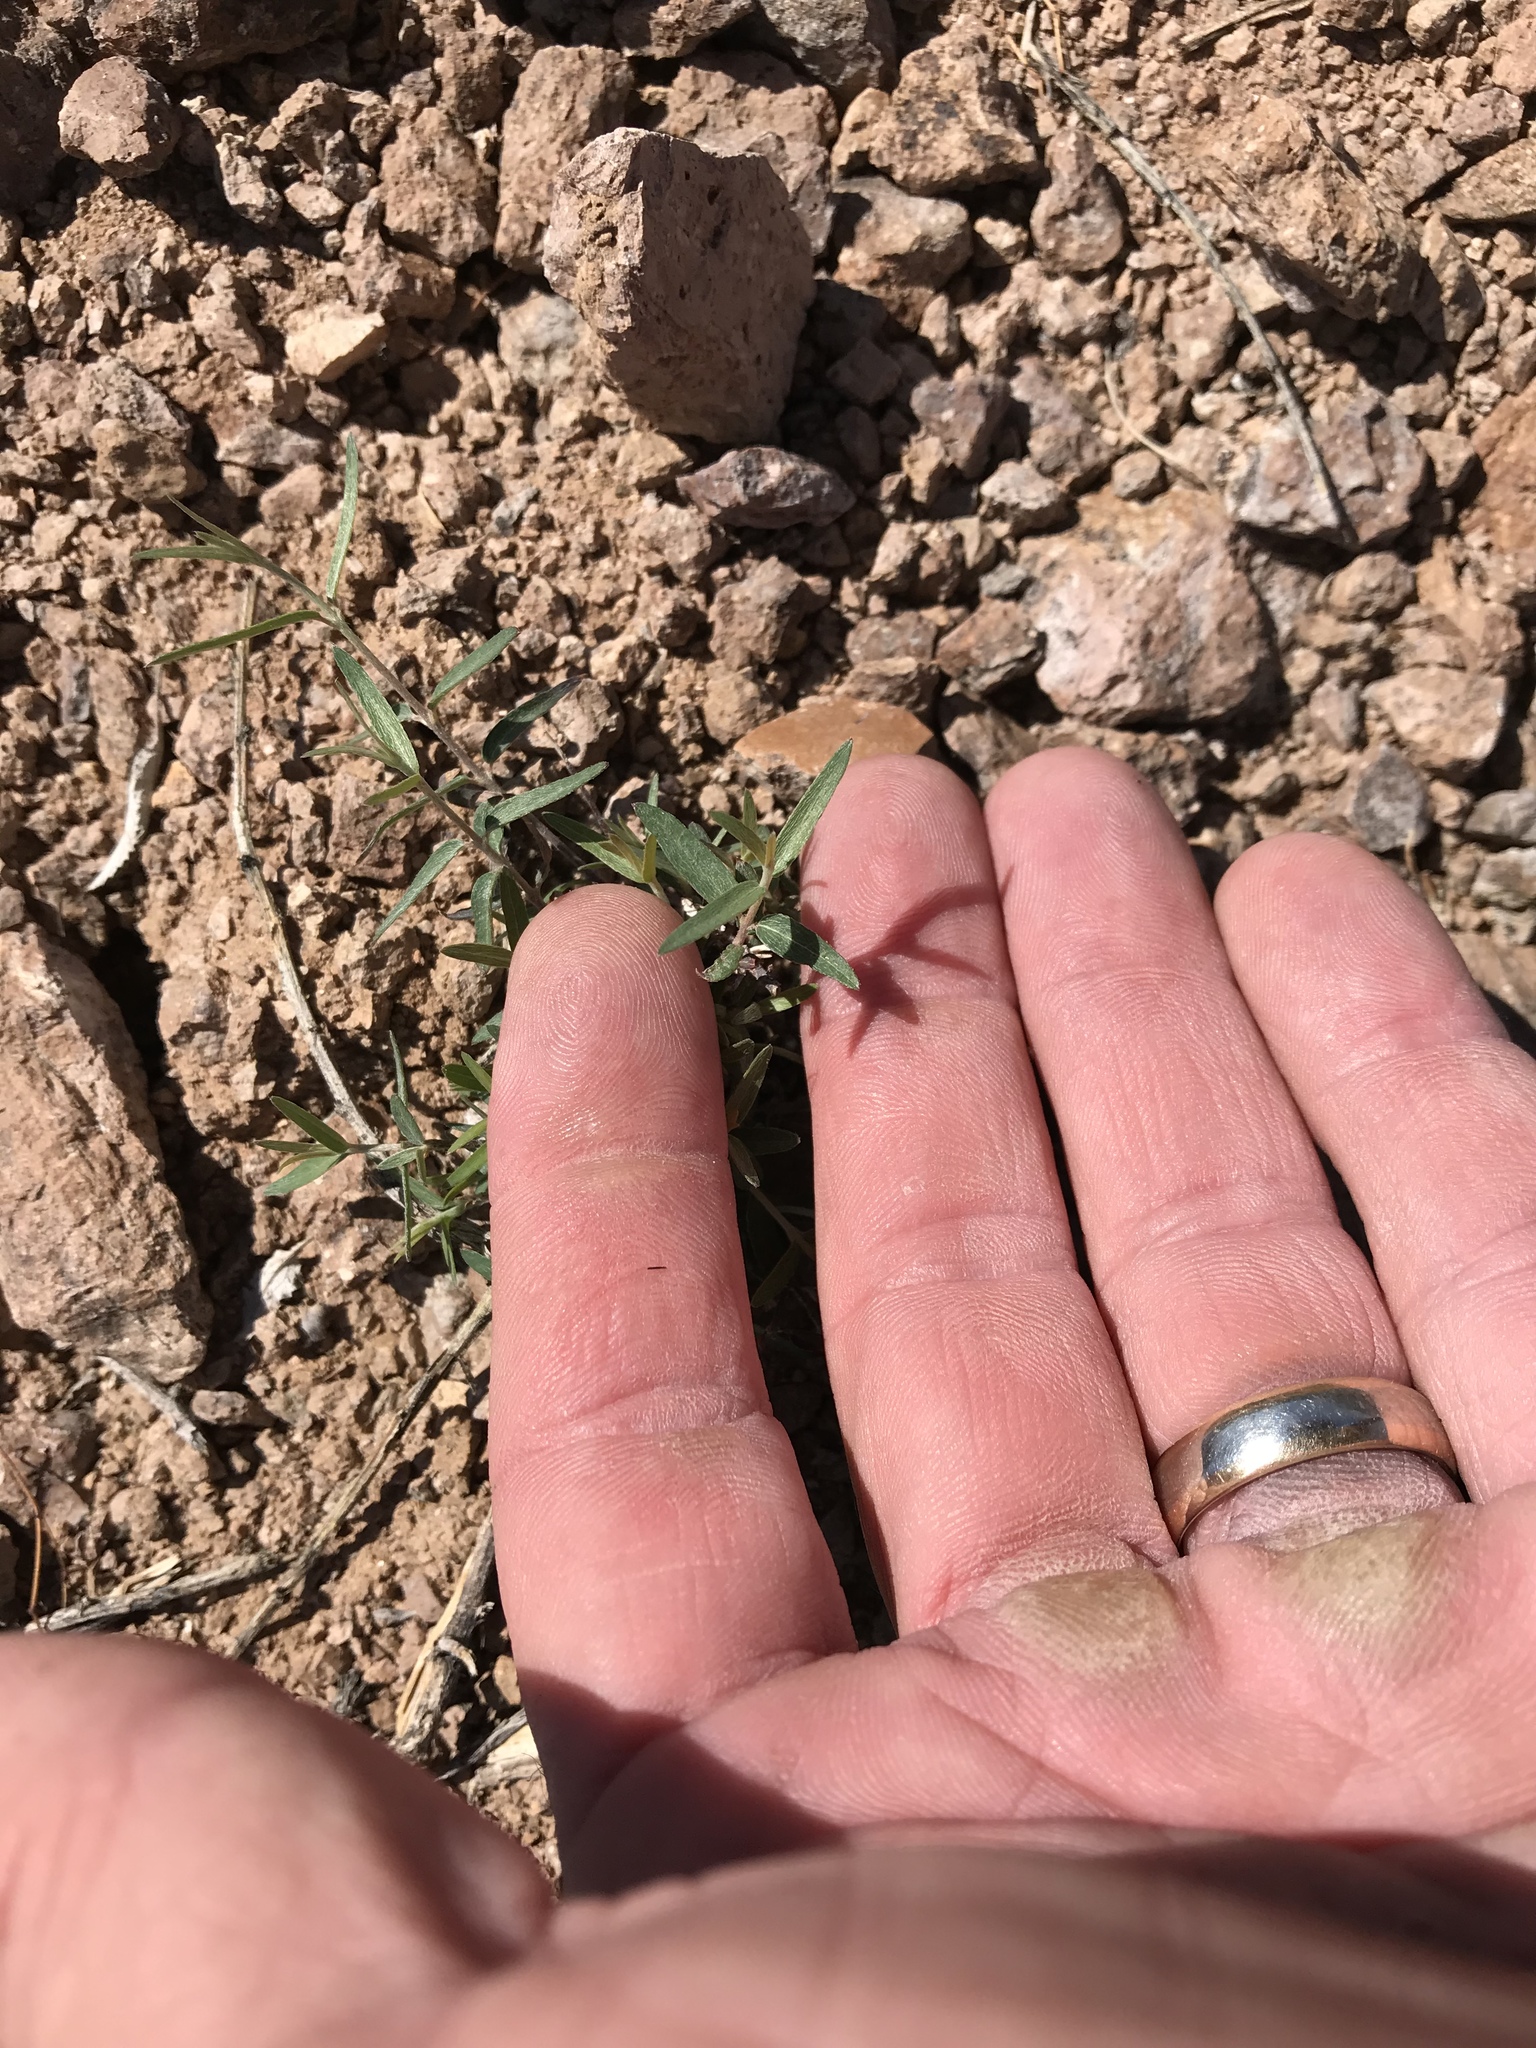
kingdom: Plantae
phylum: Tracheophyta
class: Magnoliopsida
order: Malpighiales
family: Malpighiaceae
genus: Cottsia
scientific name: Cottsia gracilis
